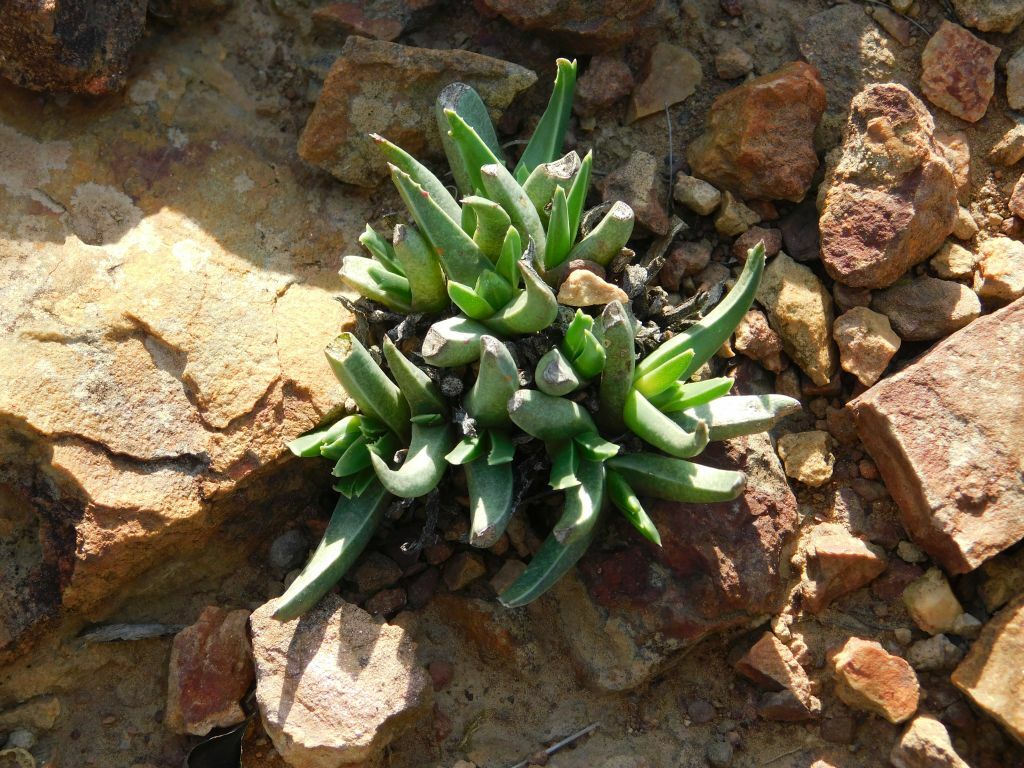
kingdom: Plantae
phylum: Tracheophyta
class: Magnoliopsida
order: Caryophyllales
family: Aizoaceae
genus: Acrodon
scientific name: Acrodon subulatus
